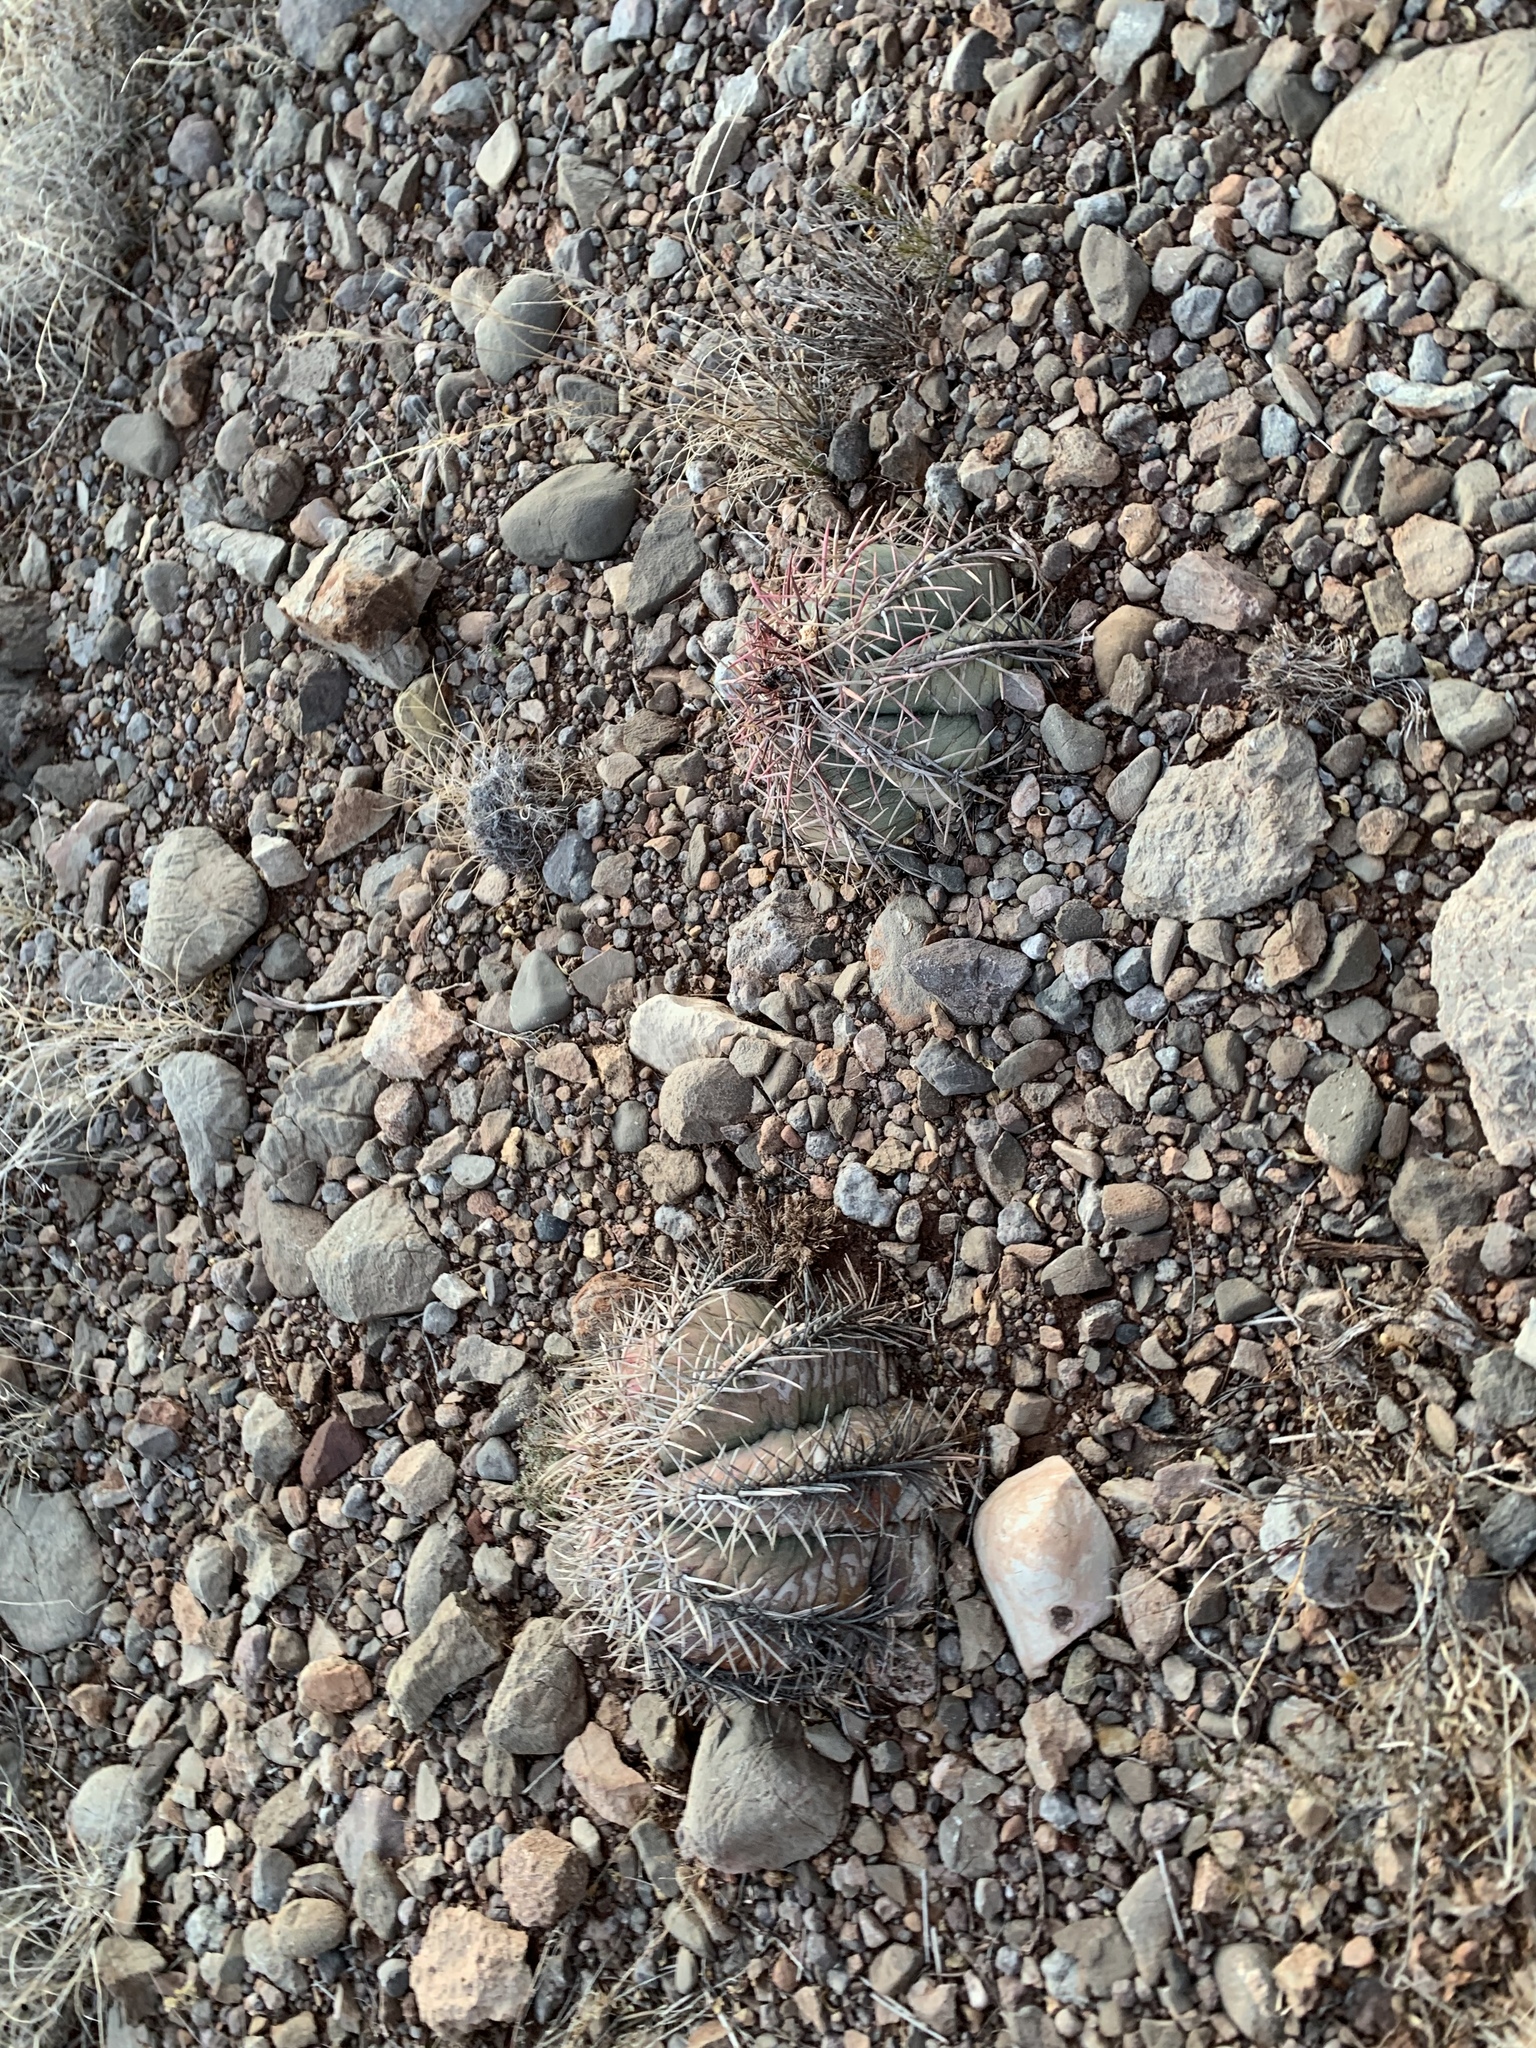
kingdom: Plantae
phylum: Tracheophyta
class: Magnoliopsida
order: Caryophyllales
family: Cactaceae
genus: Echinocactus
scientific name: Echinocactus horizonthalonius
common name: Devilshead
